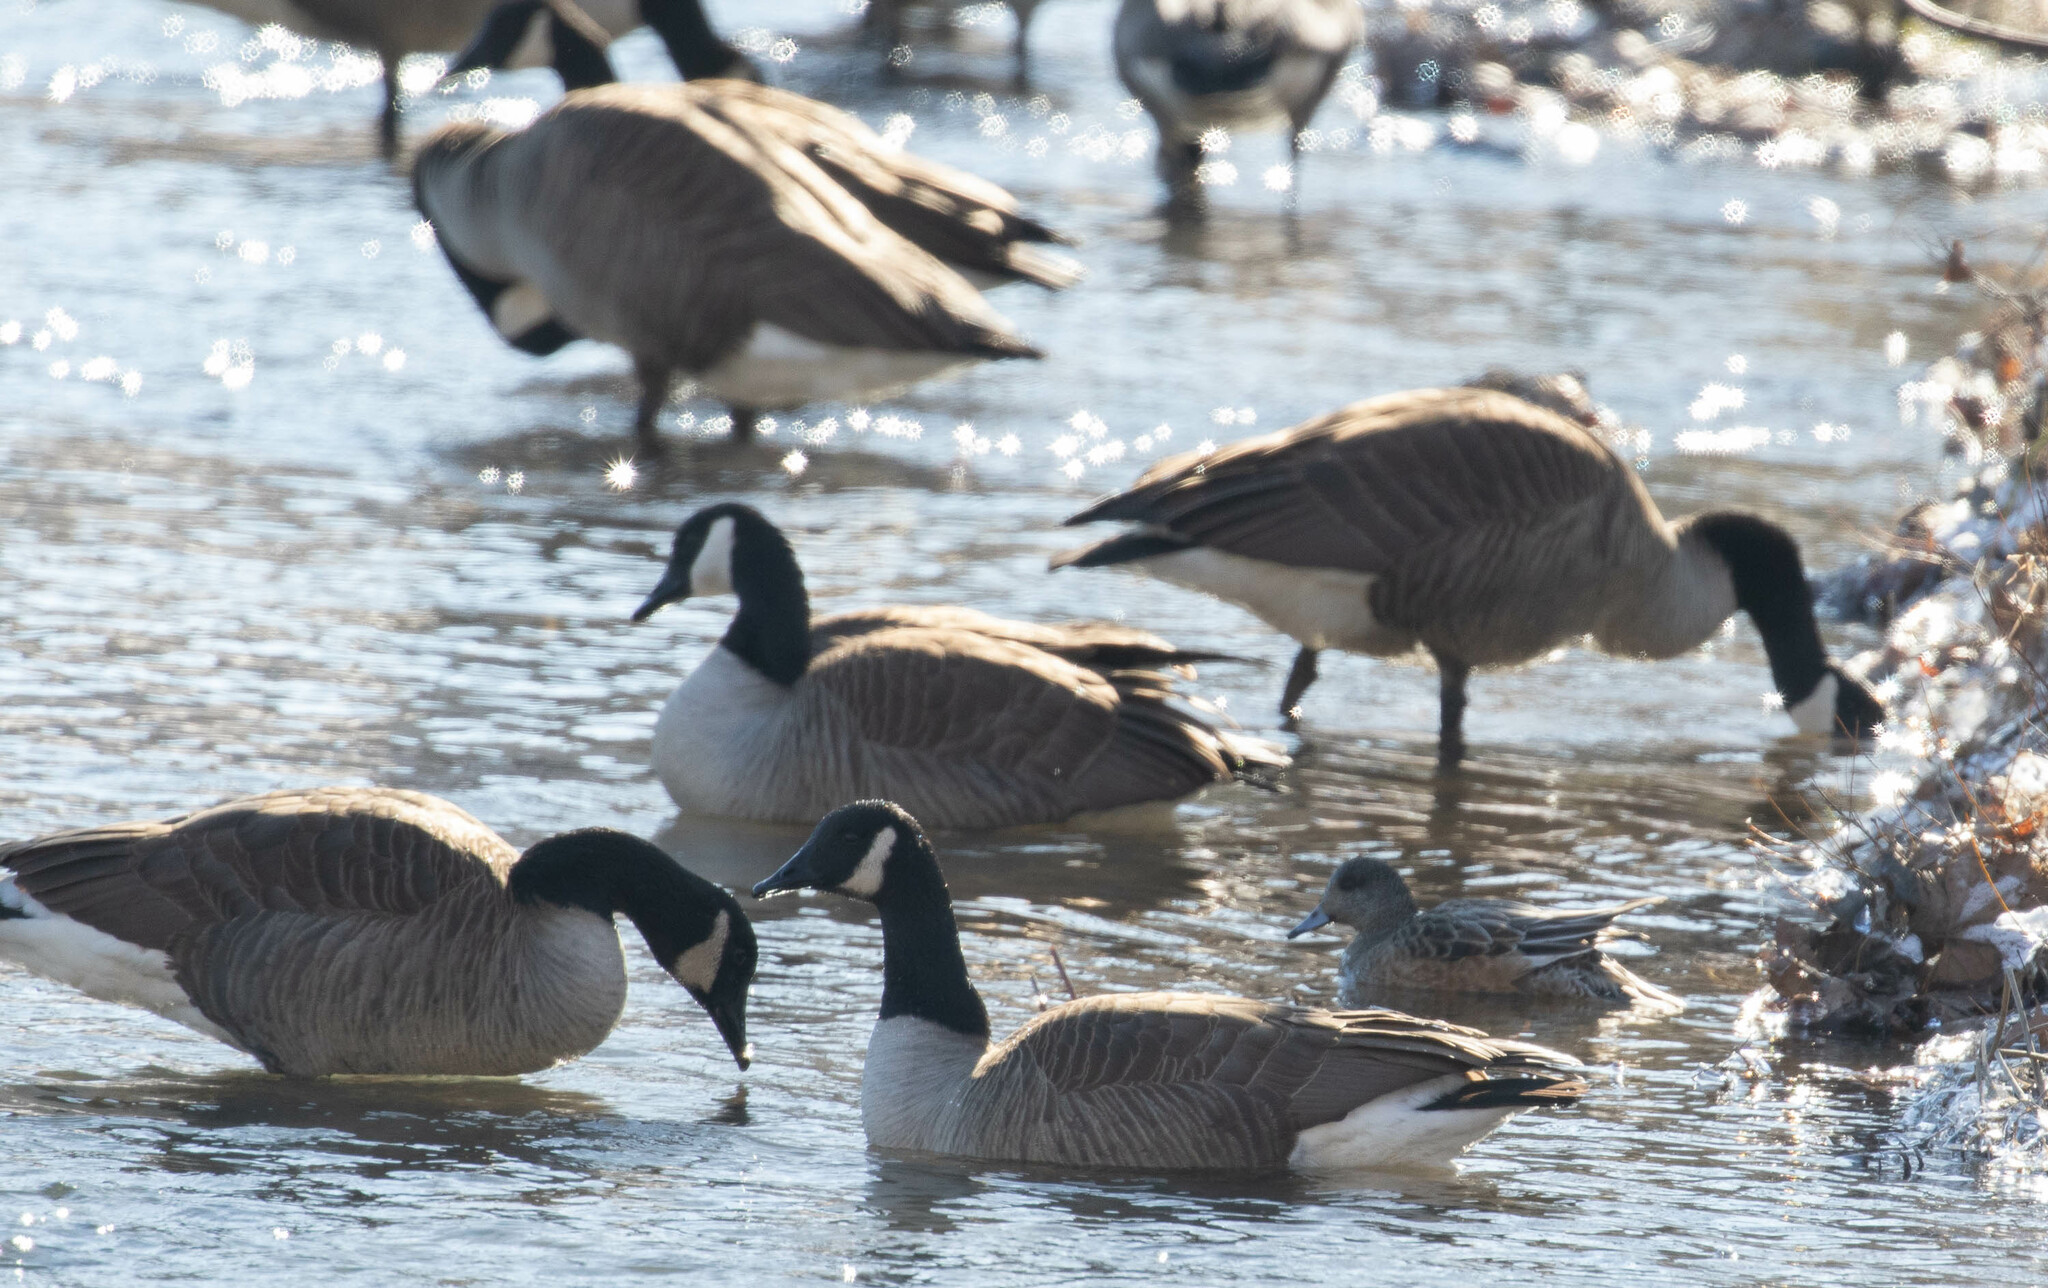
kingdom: Animalia
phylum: Chordata
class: Aves
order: Anseriformes
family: Anatidae
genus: Branta
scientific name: Branta canadensis
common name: Canada goose
